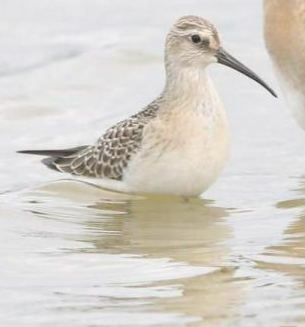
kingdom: Animalia
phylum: Chordata
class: Aves
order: Charadriiformes
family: Scolopacidae
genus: Calidris
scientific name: Calidris ferruginea
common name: Curlew sandpiper
